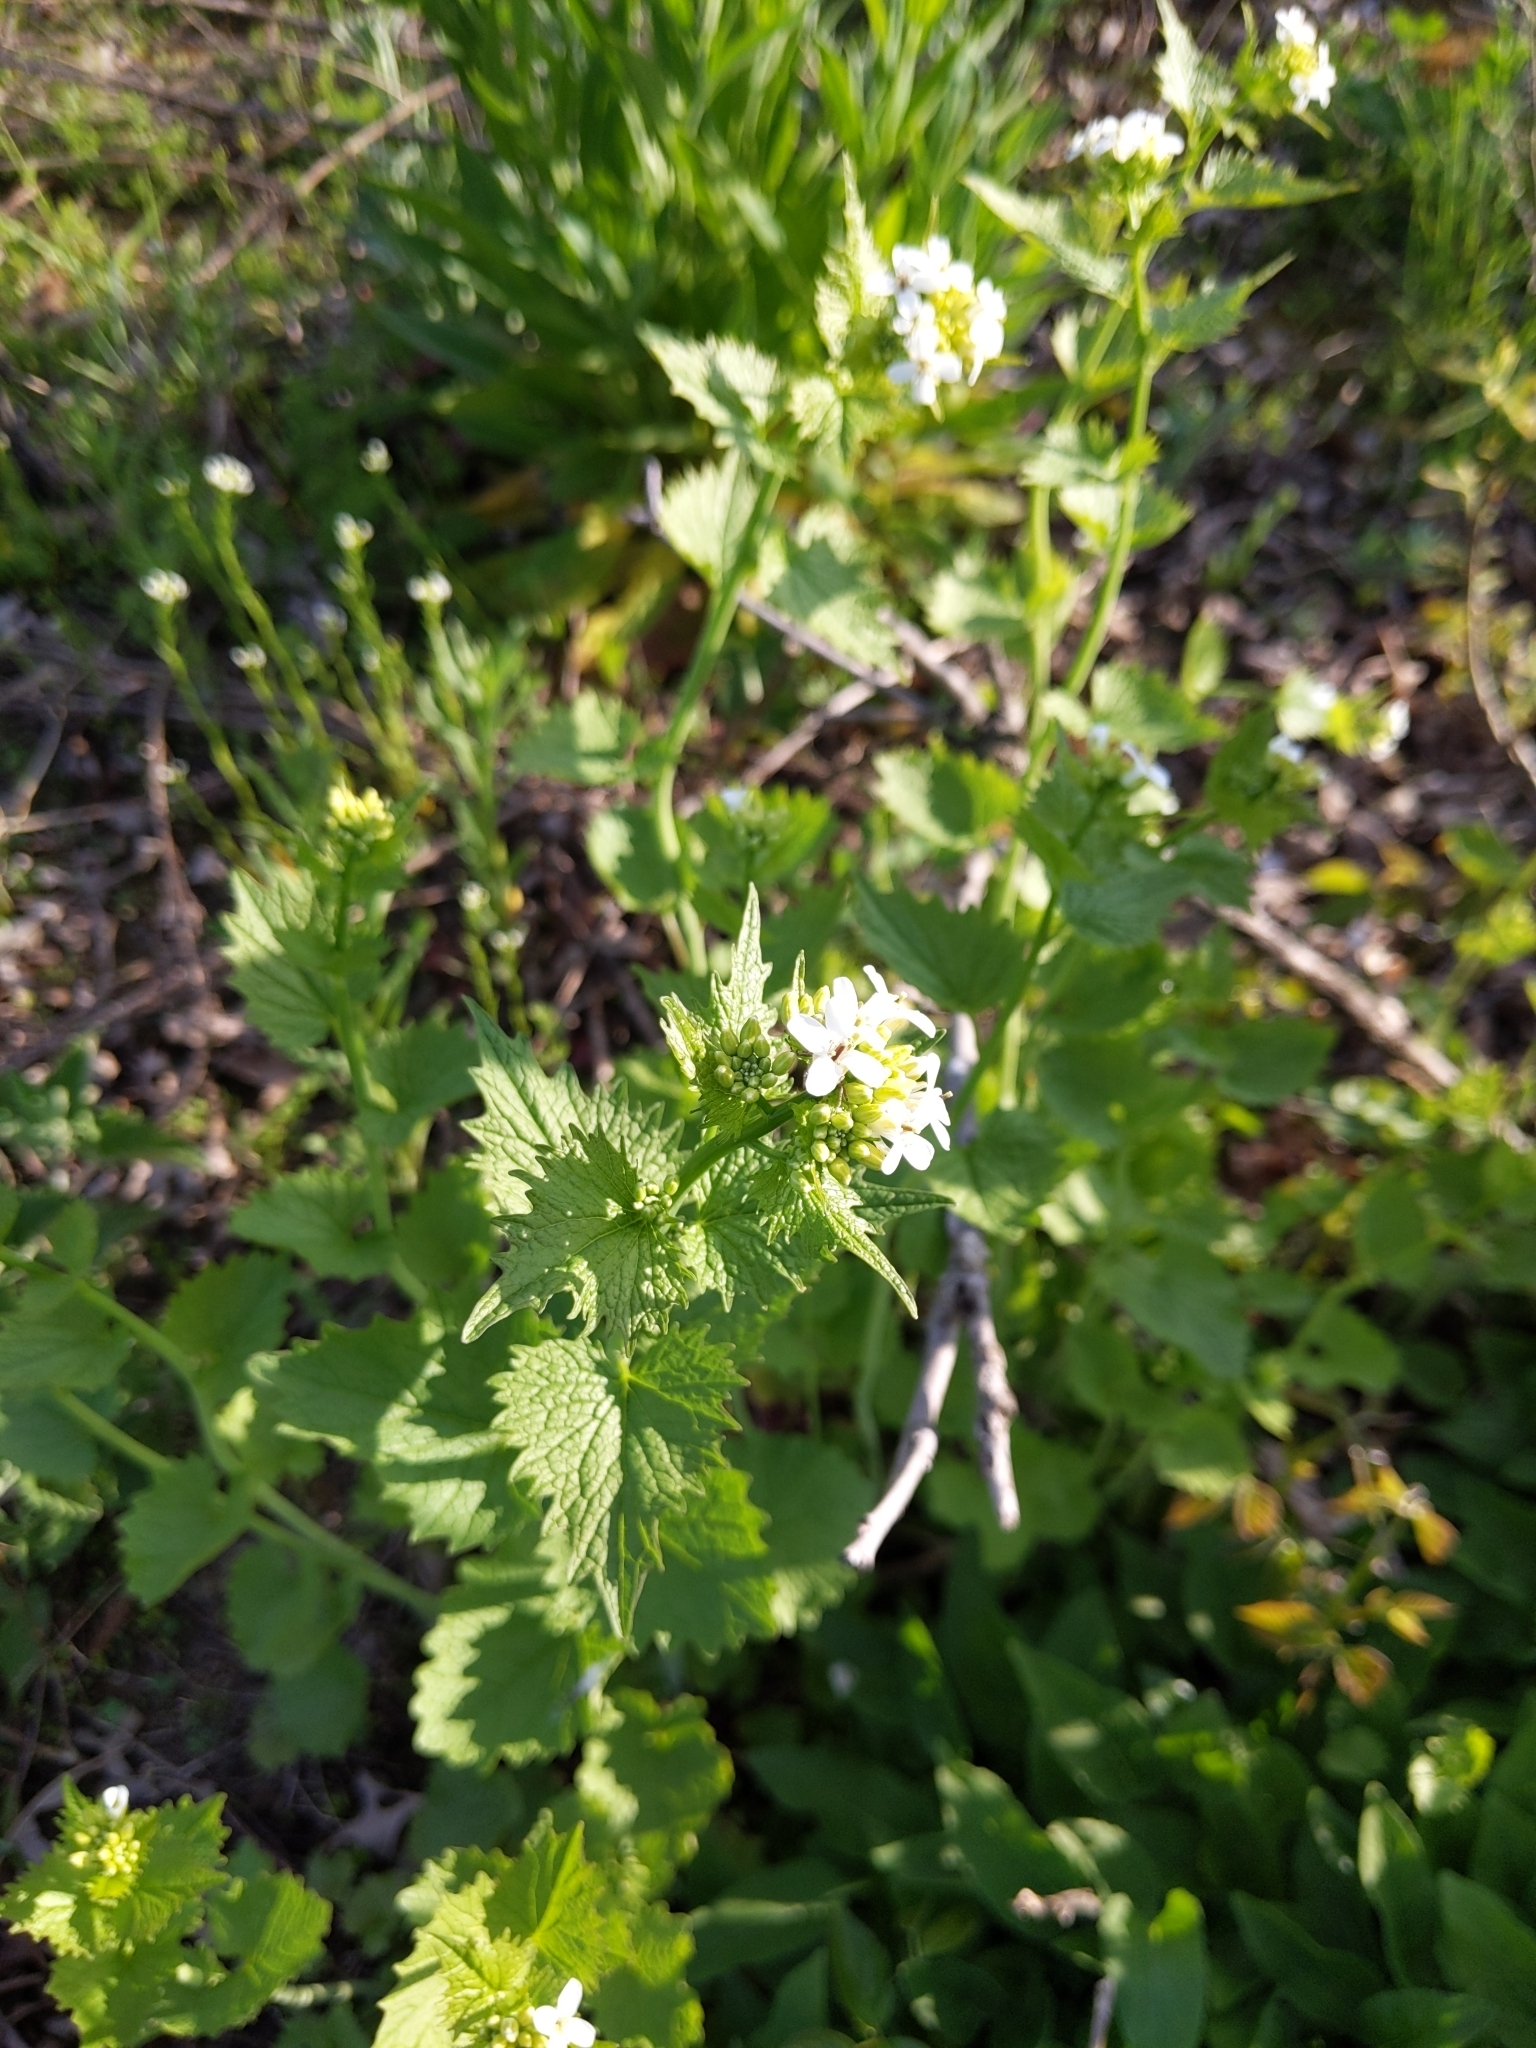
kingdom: Plantae
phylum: Tracheophyta
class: Magnoliopsida
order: Brassicales
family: Brassicaceae
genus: Alliaria
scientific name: Alliaria petiolata
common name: Garlic mustard
